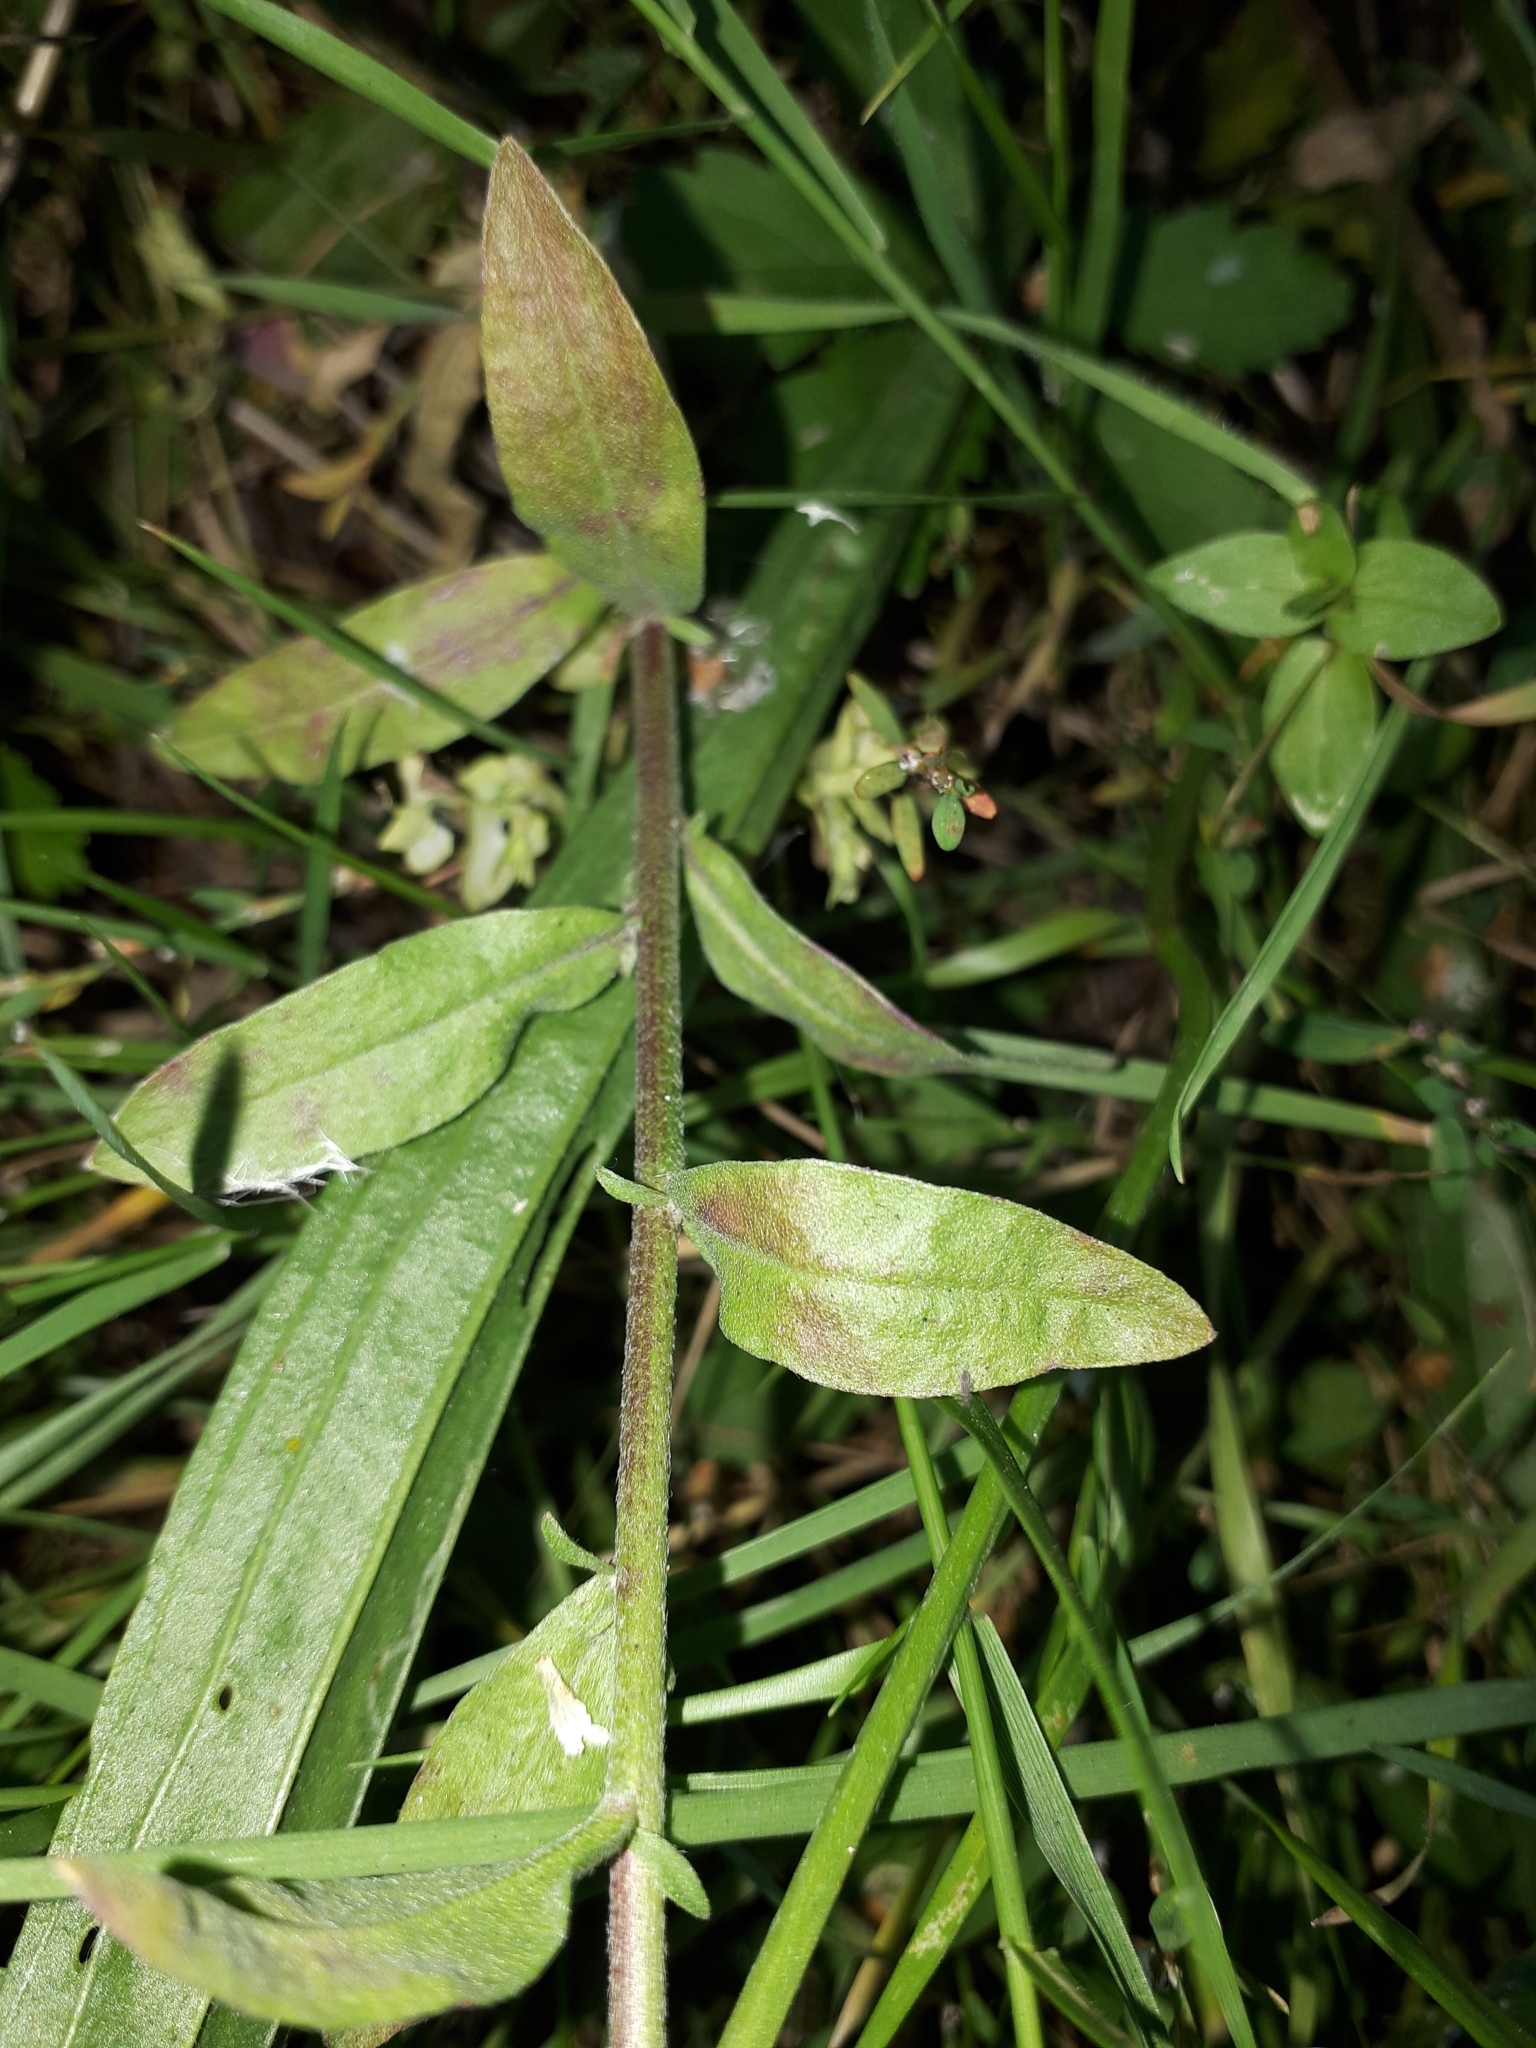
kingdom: Plantae
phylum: Tracheophyta
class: Magnoliopsida
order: Brassicales
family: Brassicaceae
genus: Berteroa
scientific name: Berteroa incana
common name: Hoary alison
